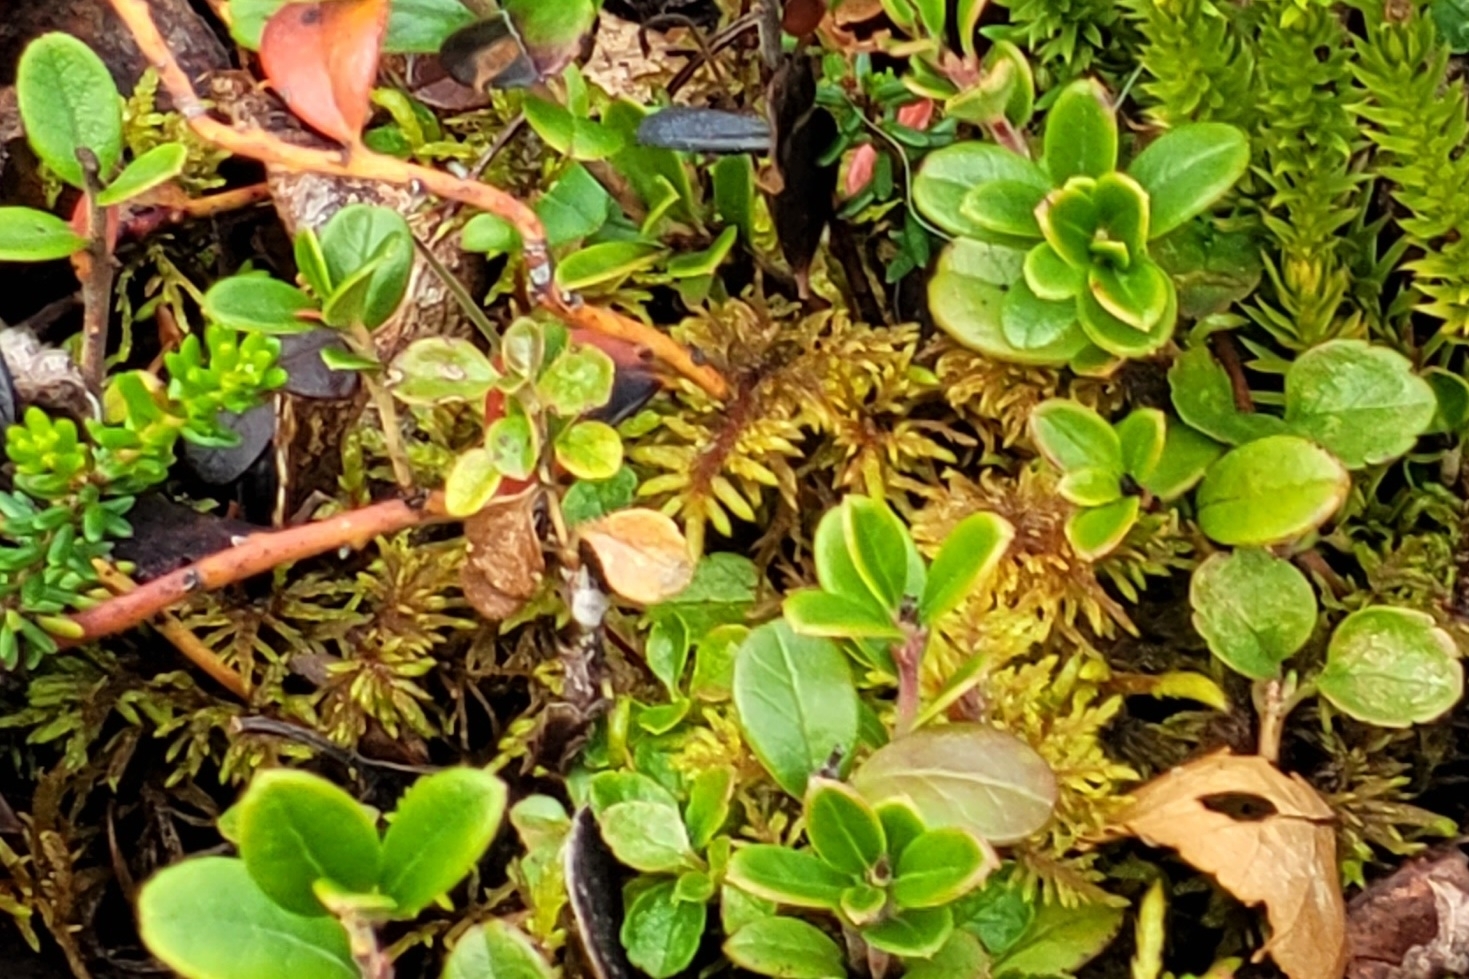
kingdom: Plantae
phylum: Tracheophyta
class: Magnoliopsida
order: Ericales
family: Ericaceae
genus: Vaccinium
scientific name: Vaccinium vitis-idaea
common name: Cowberry
